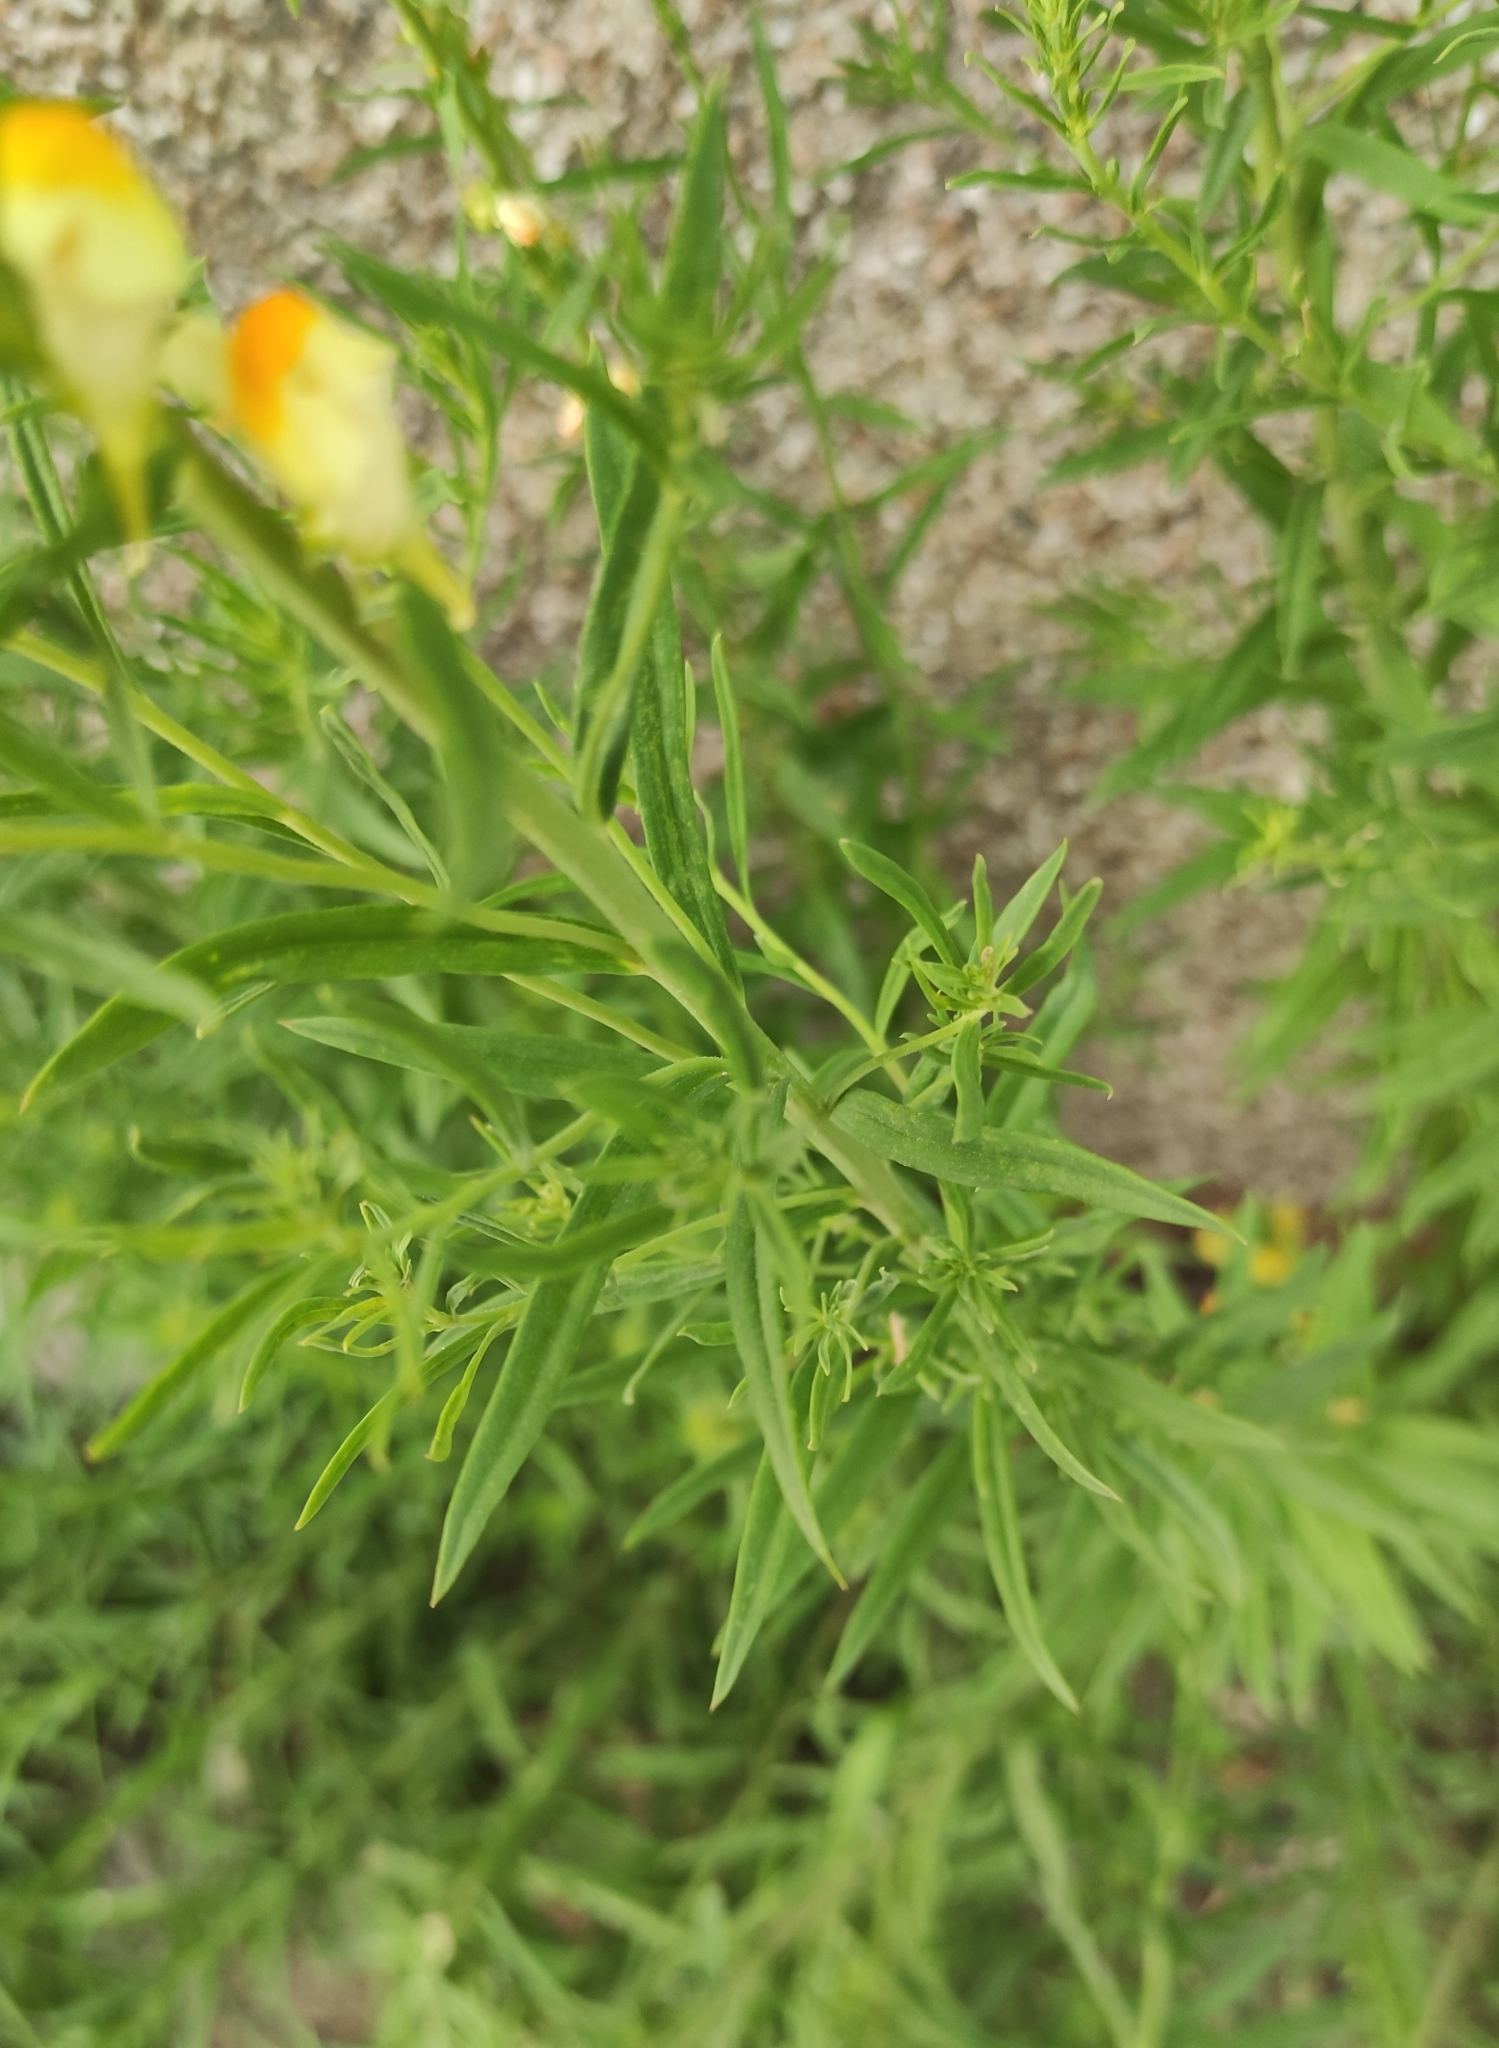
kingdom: Plantae
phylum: Tracheophyta
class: Magnoliopsida
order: Lamiales
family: Plantaginaceae
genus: Linaria
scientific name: Linaria vulgaris
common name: Butter and eggs
